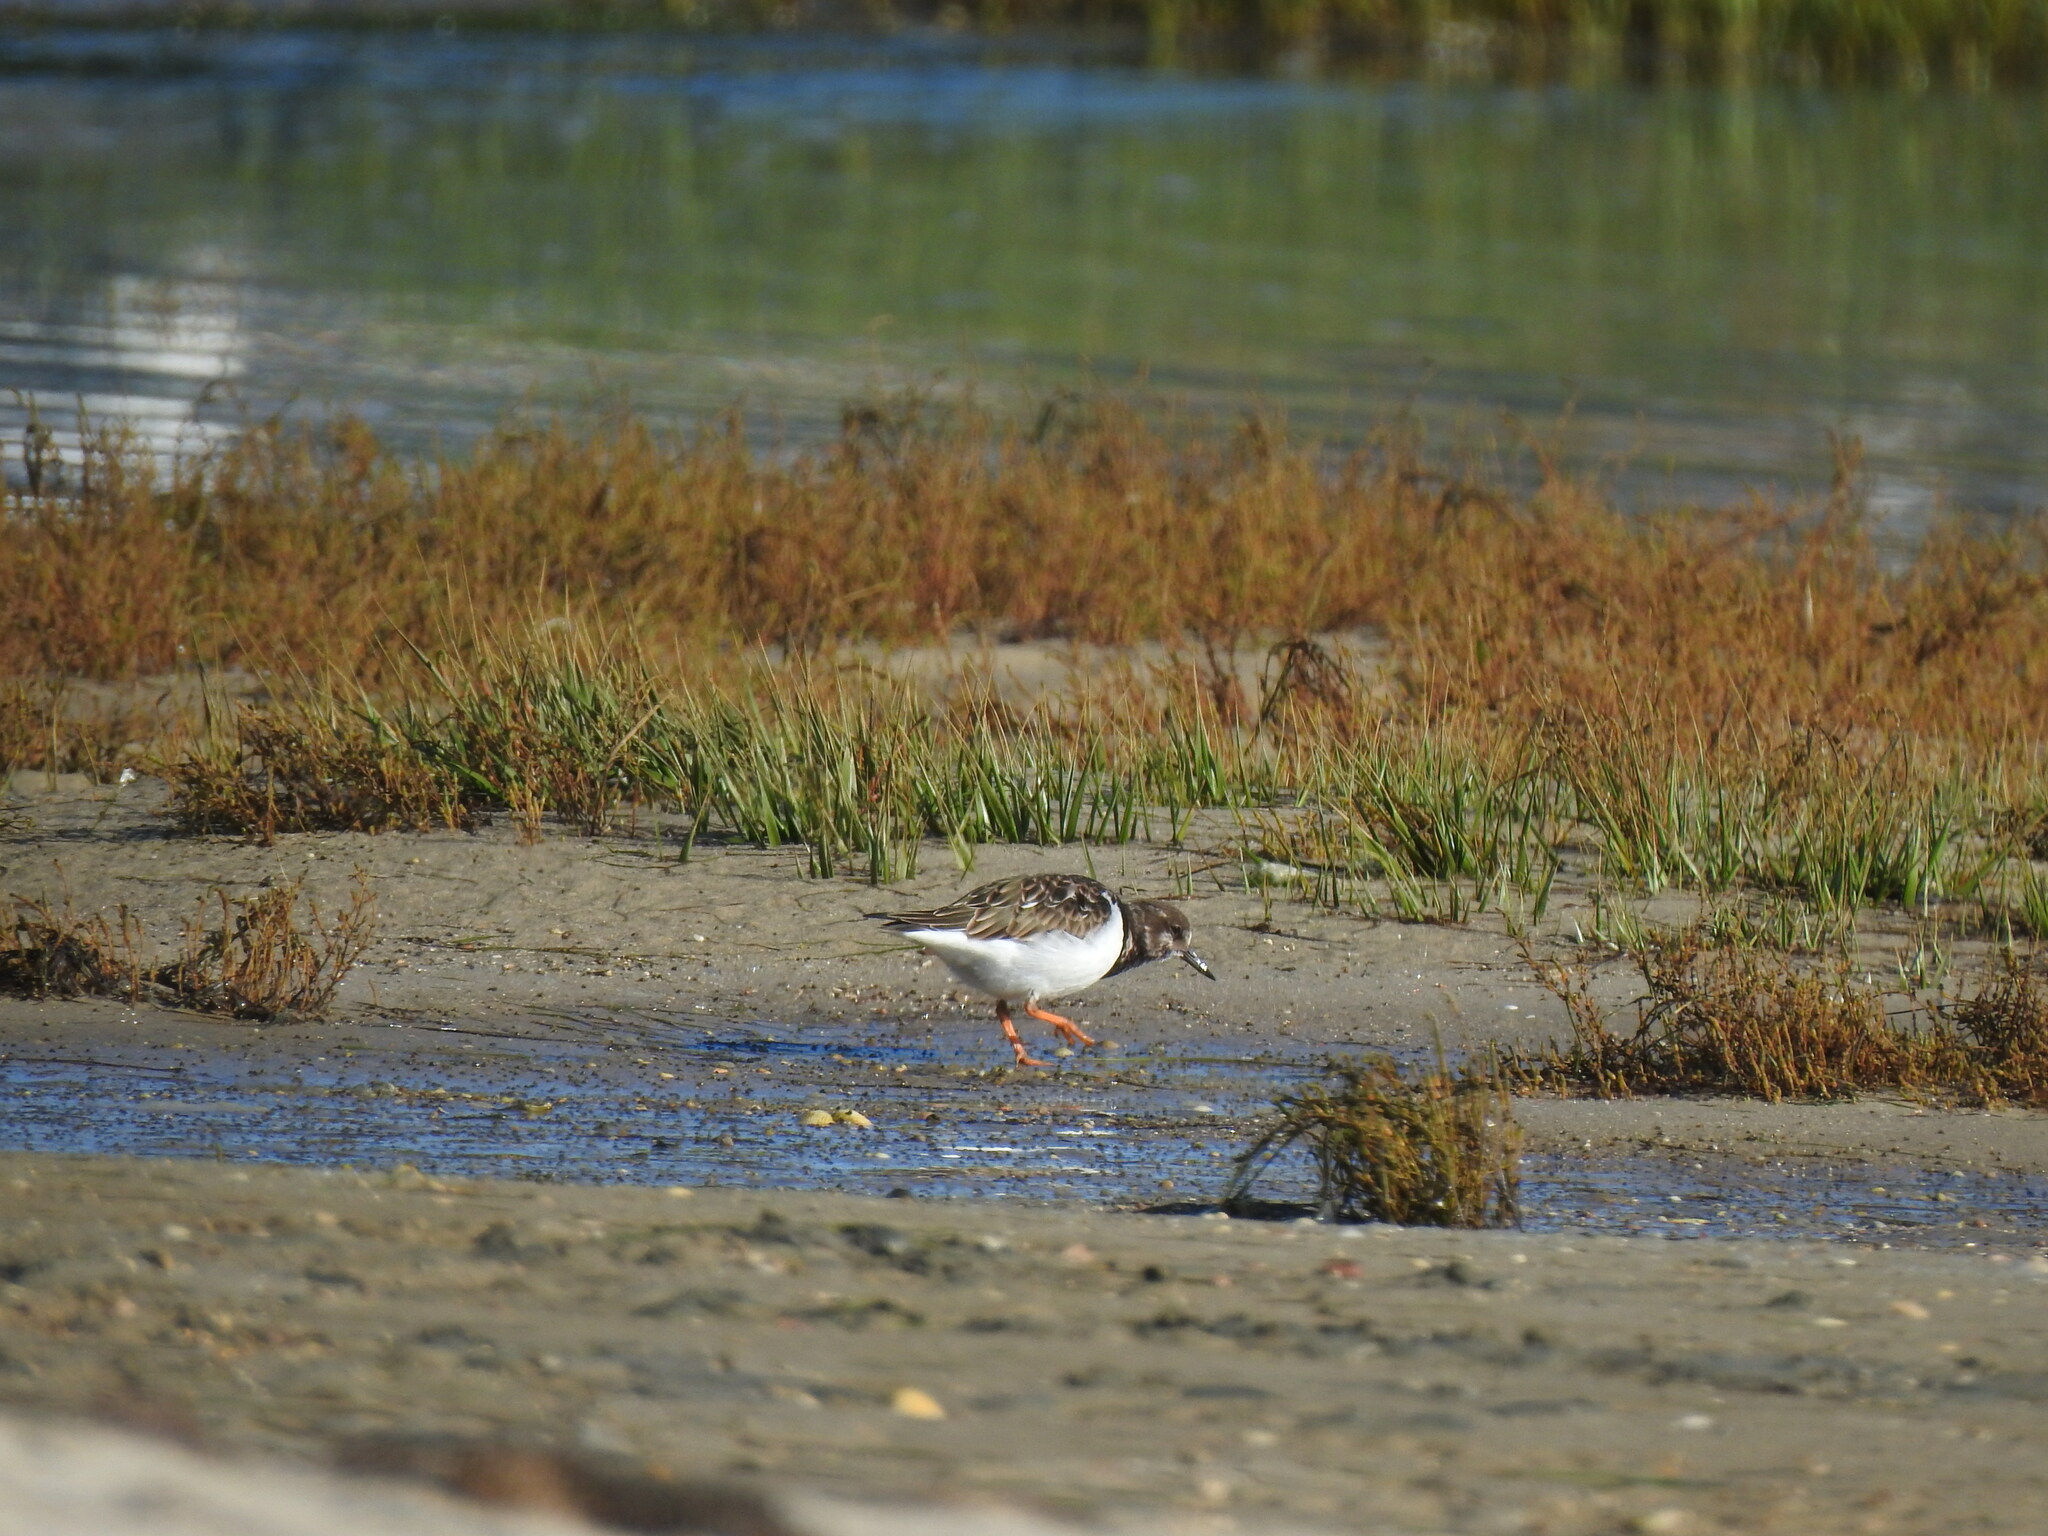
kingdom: Animalia
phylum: Chordata
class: Aves
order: Charadriiformes
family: Scolopacidae
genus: Arenaria
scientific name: Arenaria interpres
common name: Ruddy turnstone
